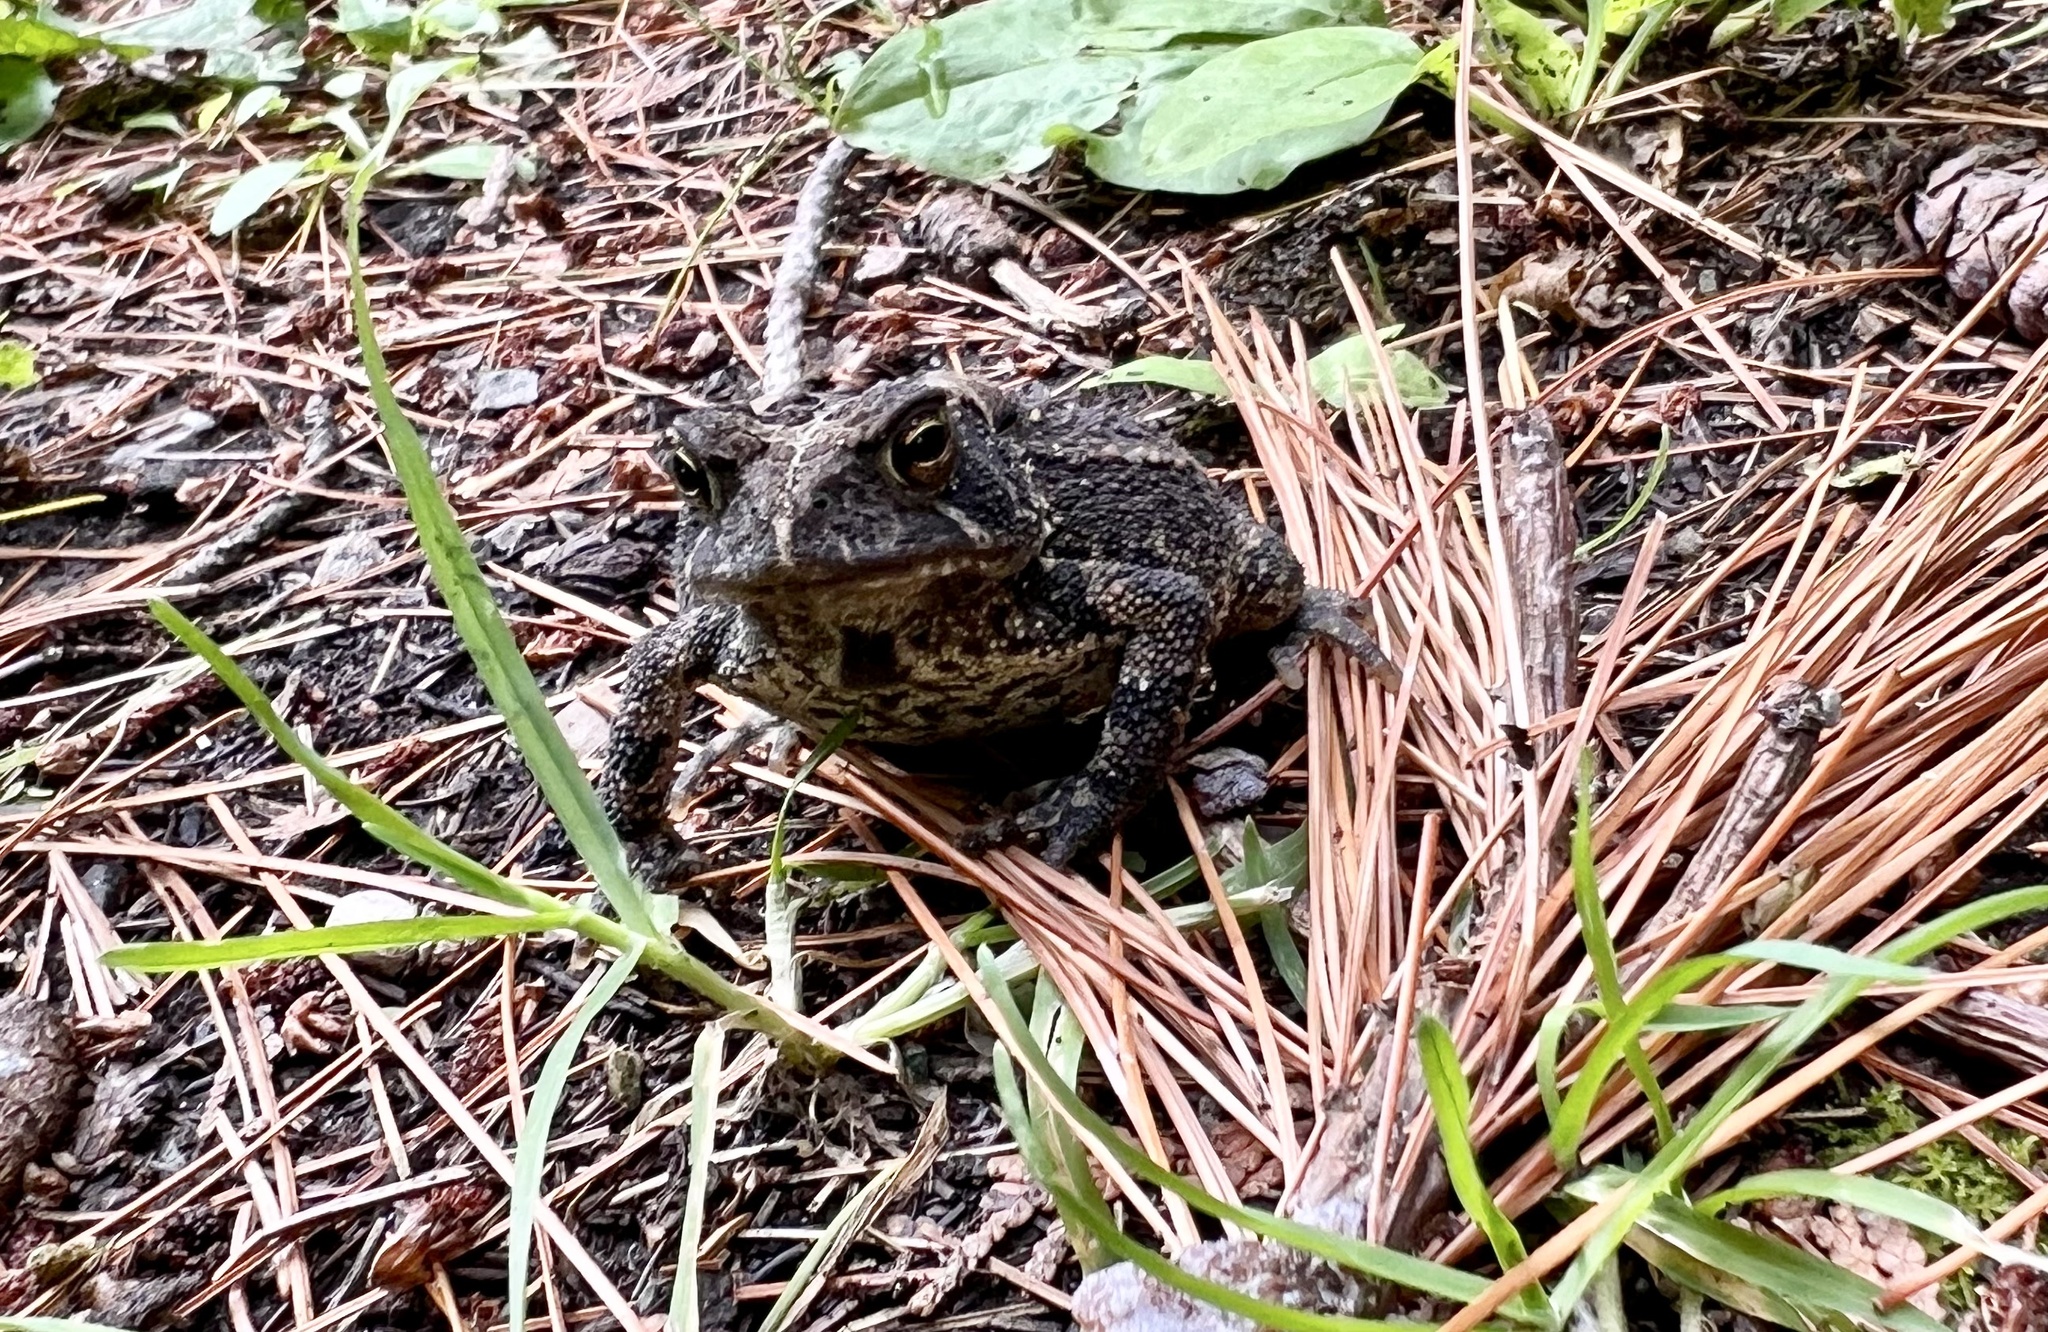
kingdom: Animalia
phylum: Chordata
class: Amphibia
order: Anura
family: Bufonidae
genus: Anaxyrus
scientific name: Anaxyrus americanus
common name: American toad
